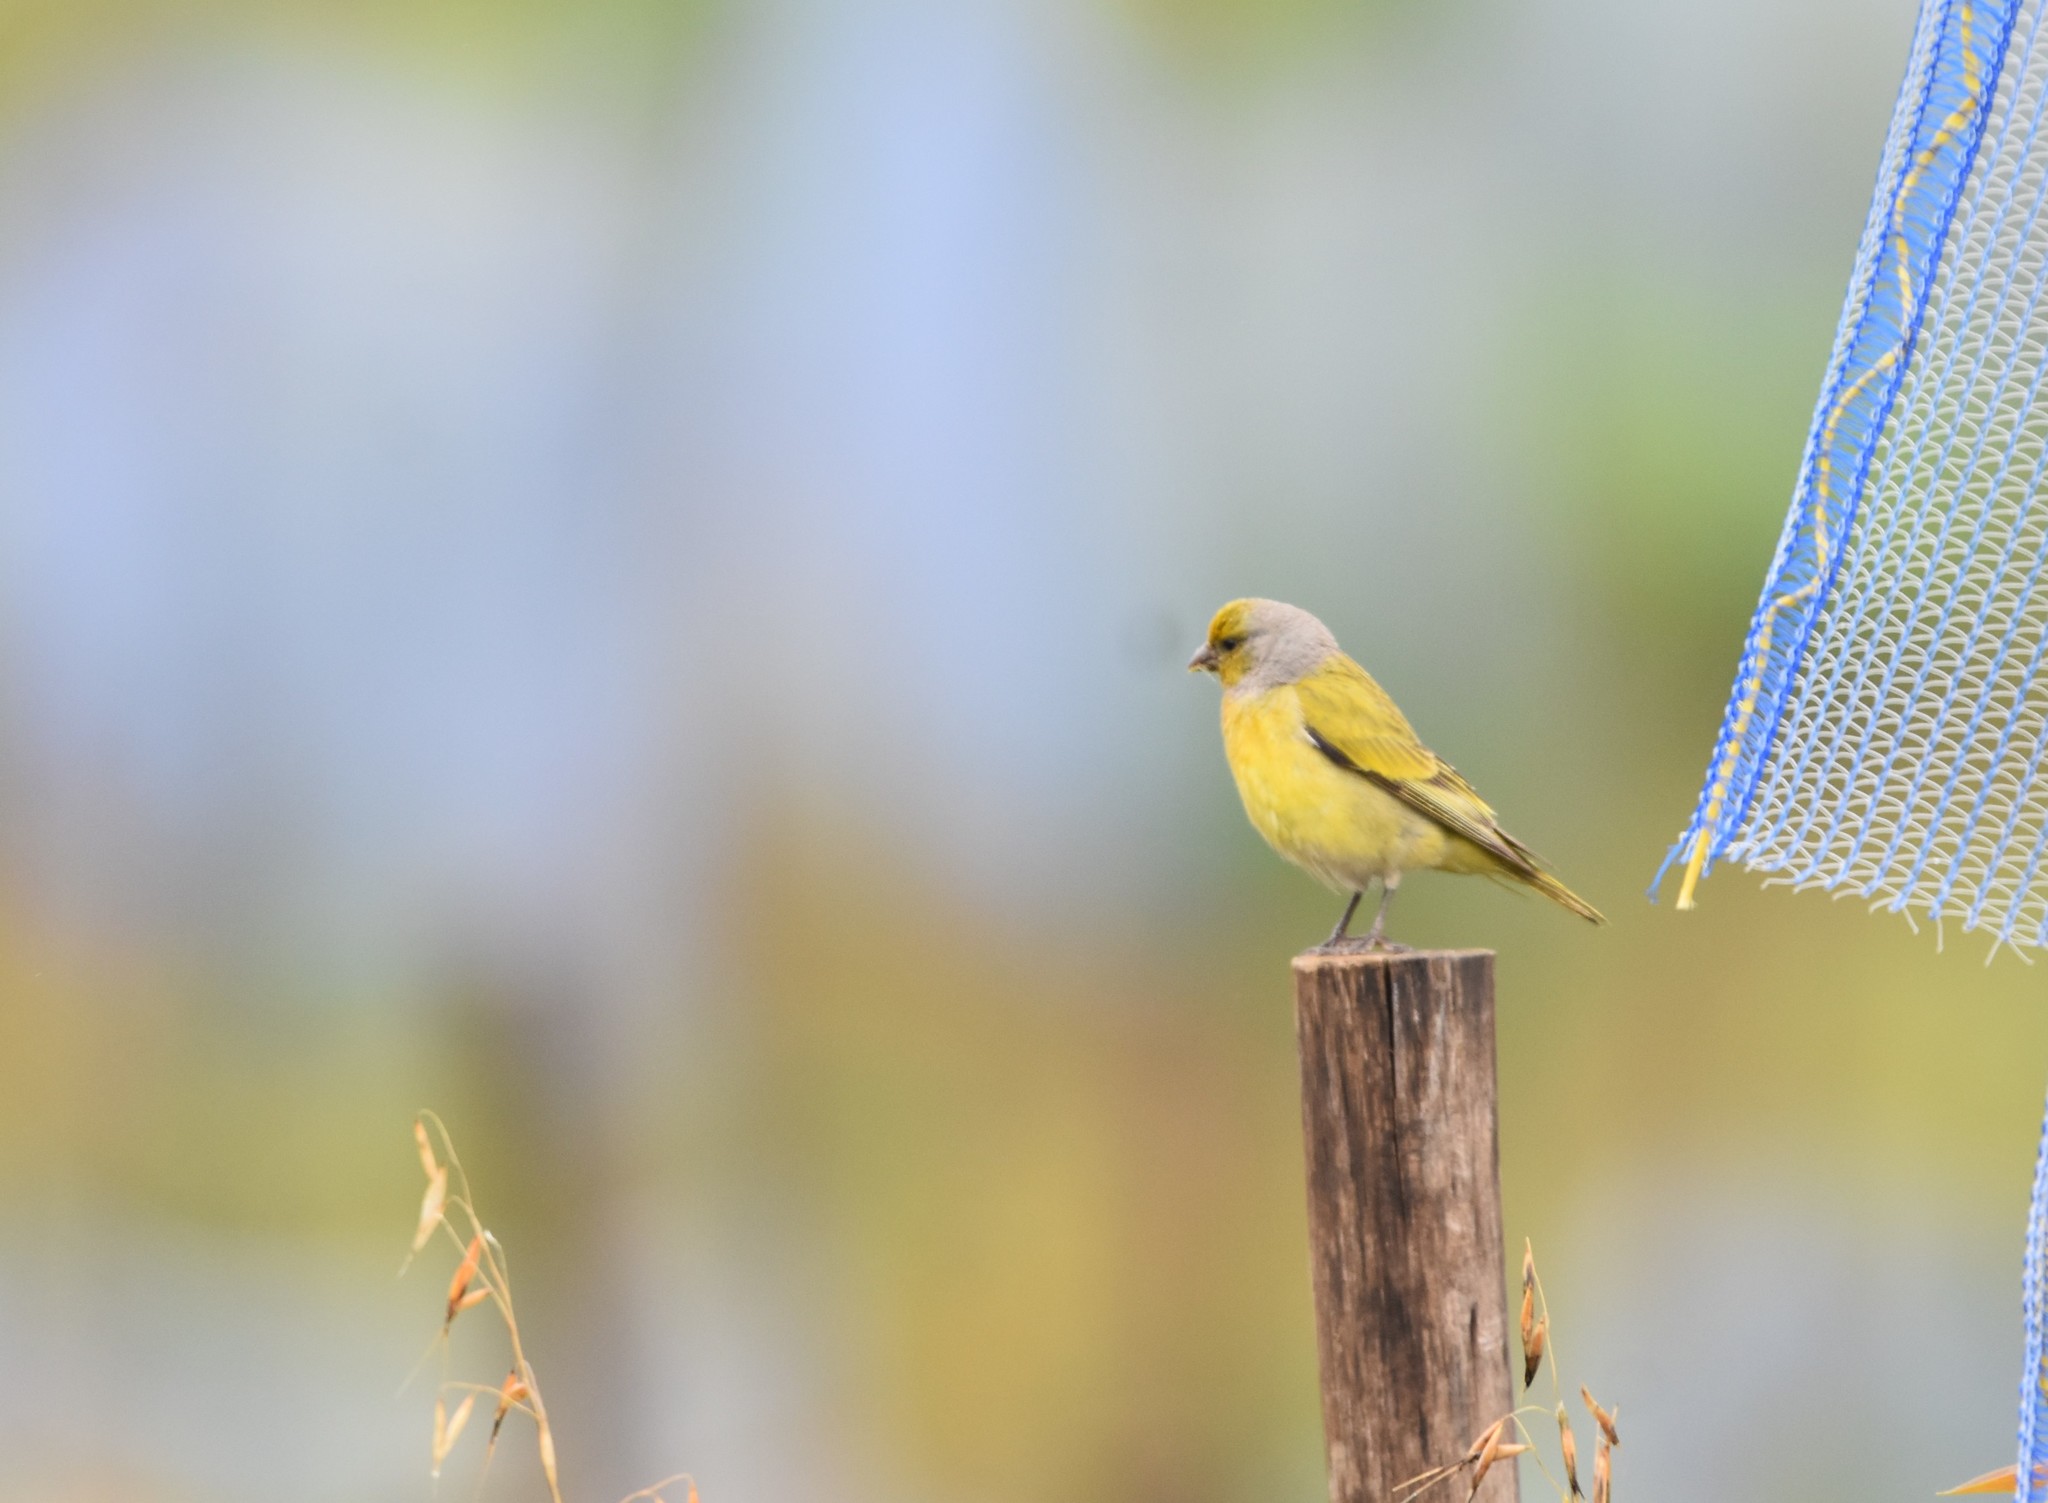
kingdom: Animalia
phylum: Chordata
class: Aves
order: Passeriformes
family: Fringillidae
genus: Serinus
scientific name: Serinus canicollis
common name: Cape canary
